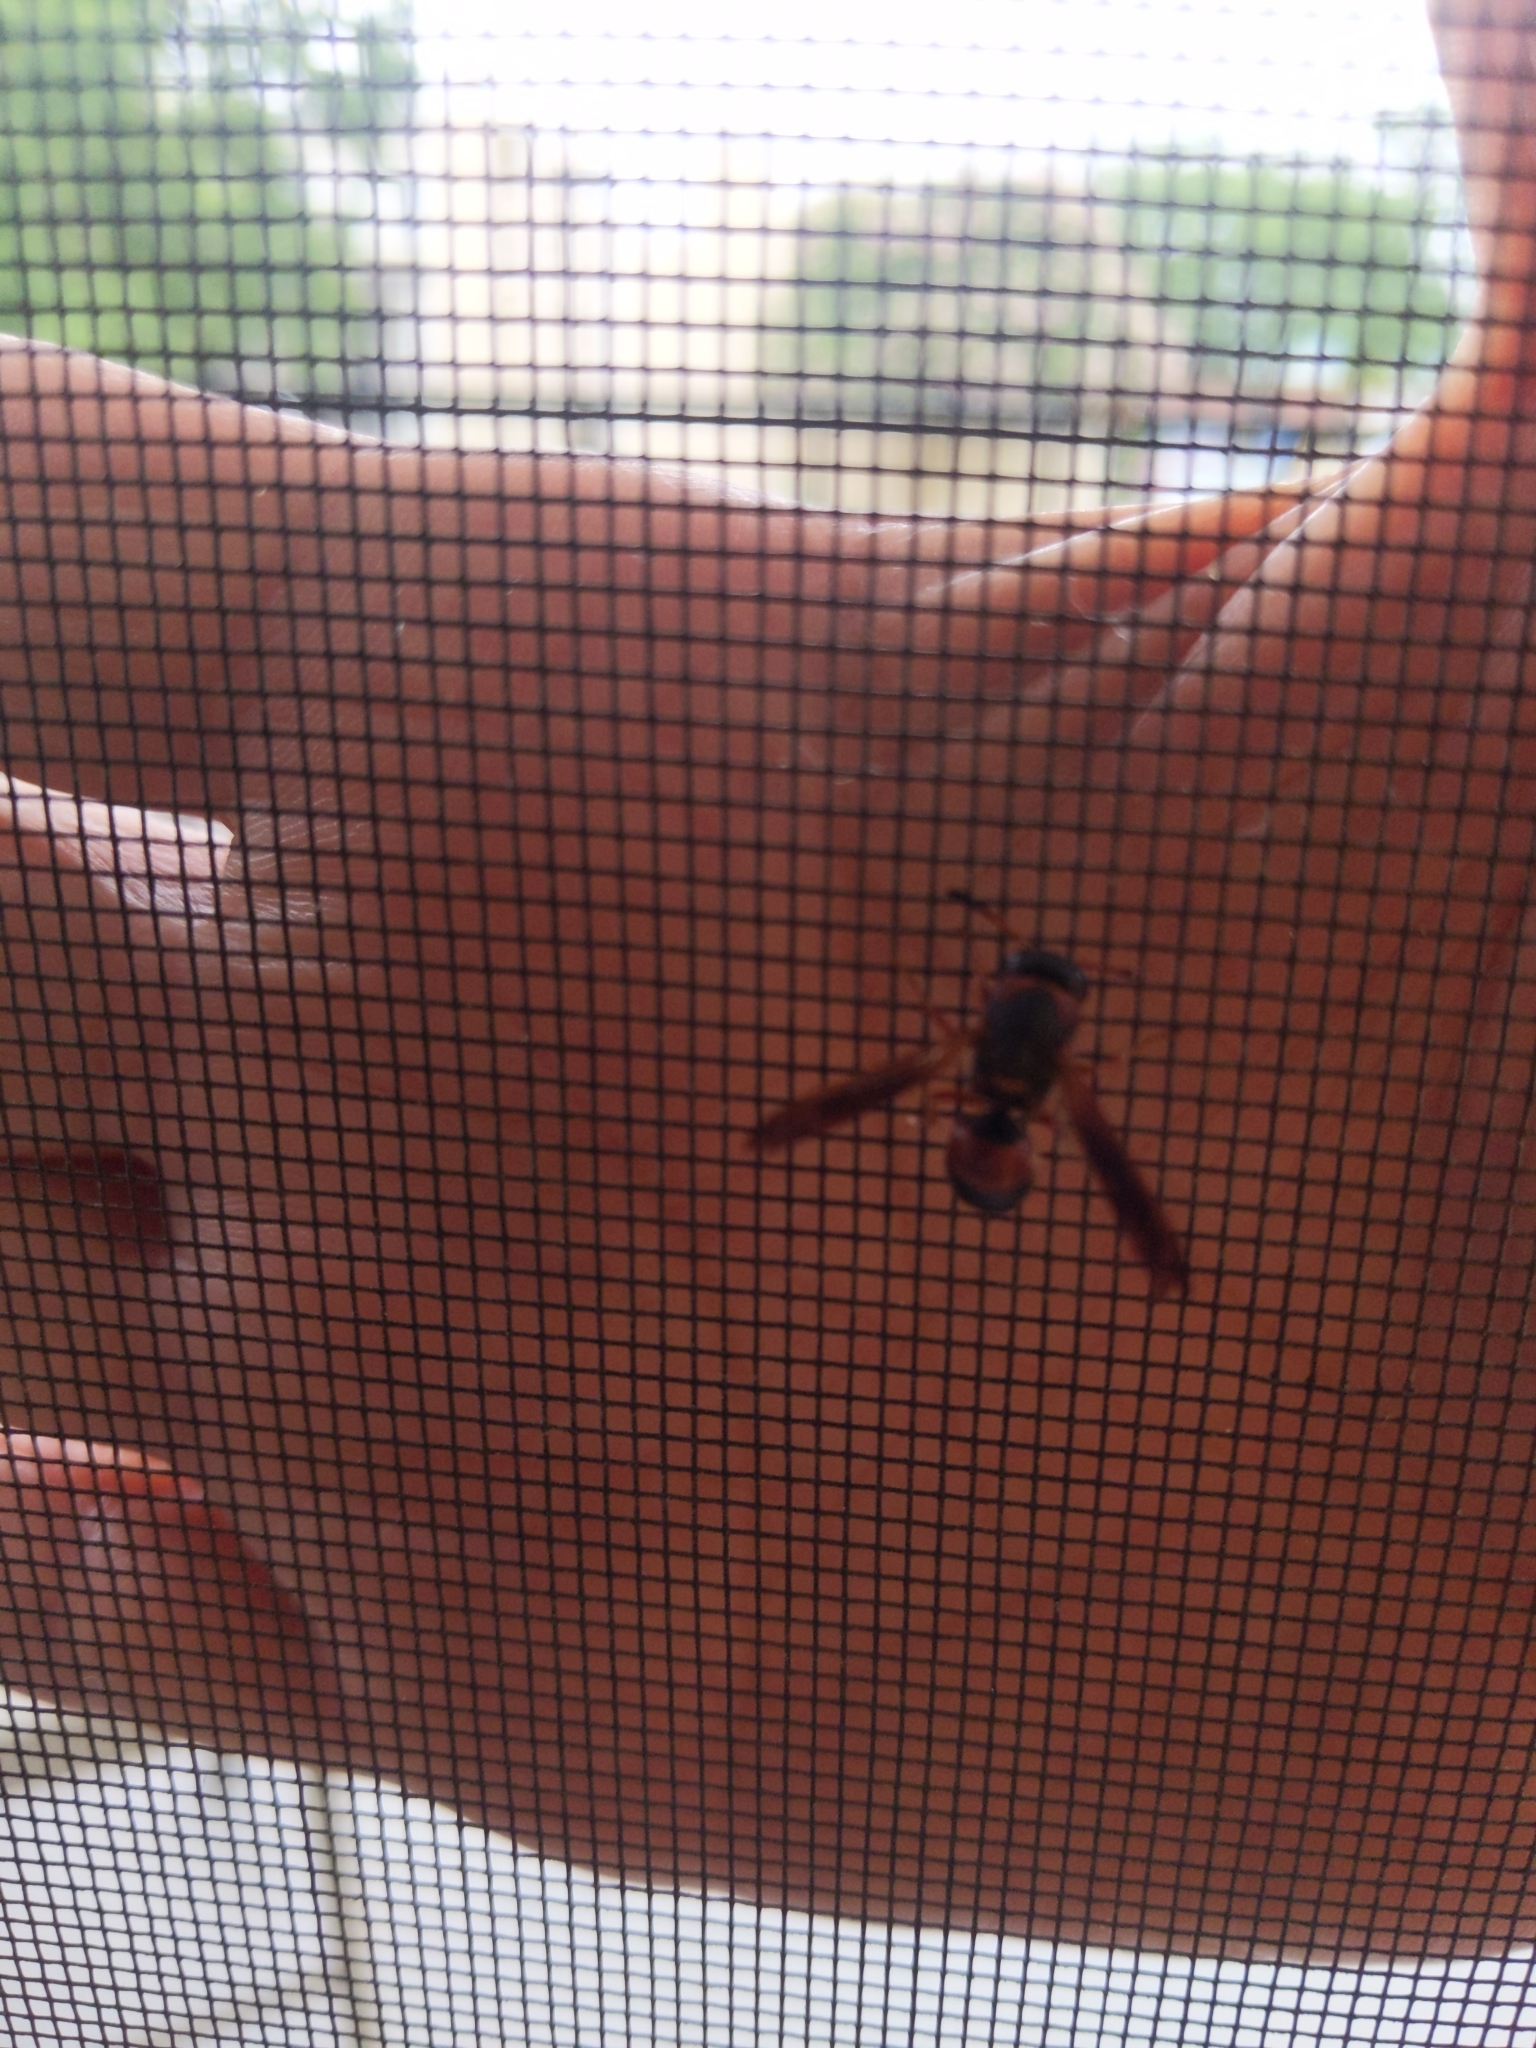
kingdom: Animalia
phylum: Arthropoda
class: Insecta
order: Hymenoptera
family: Eumenidae
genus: Pachodynerus
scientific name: Pachodynerus erynnis
